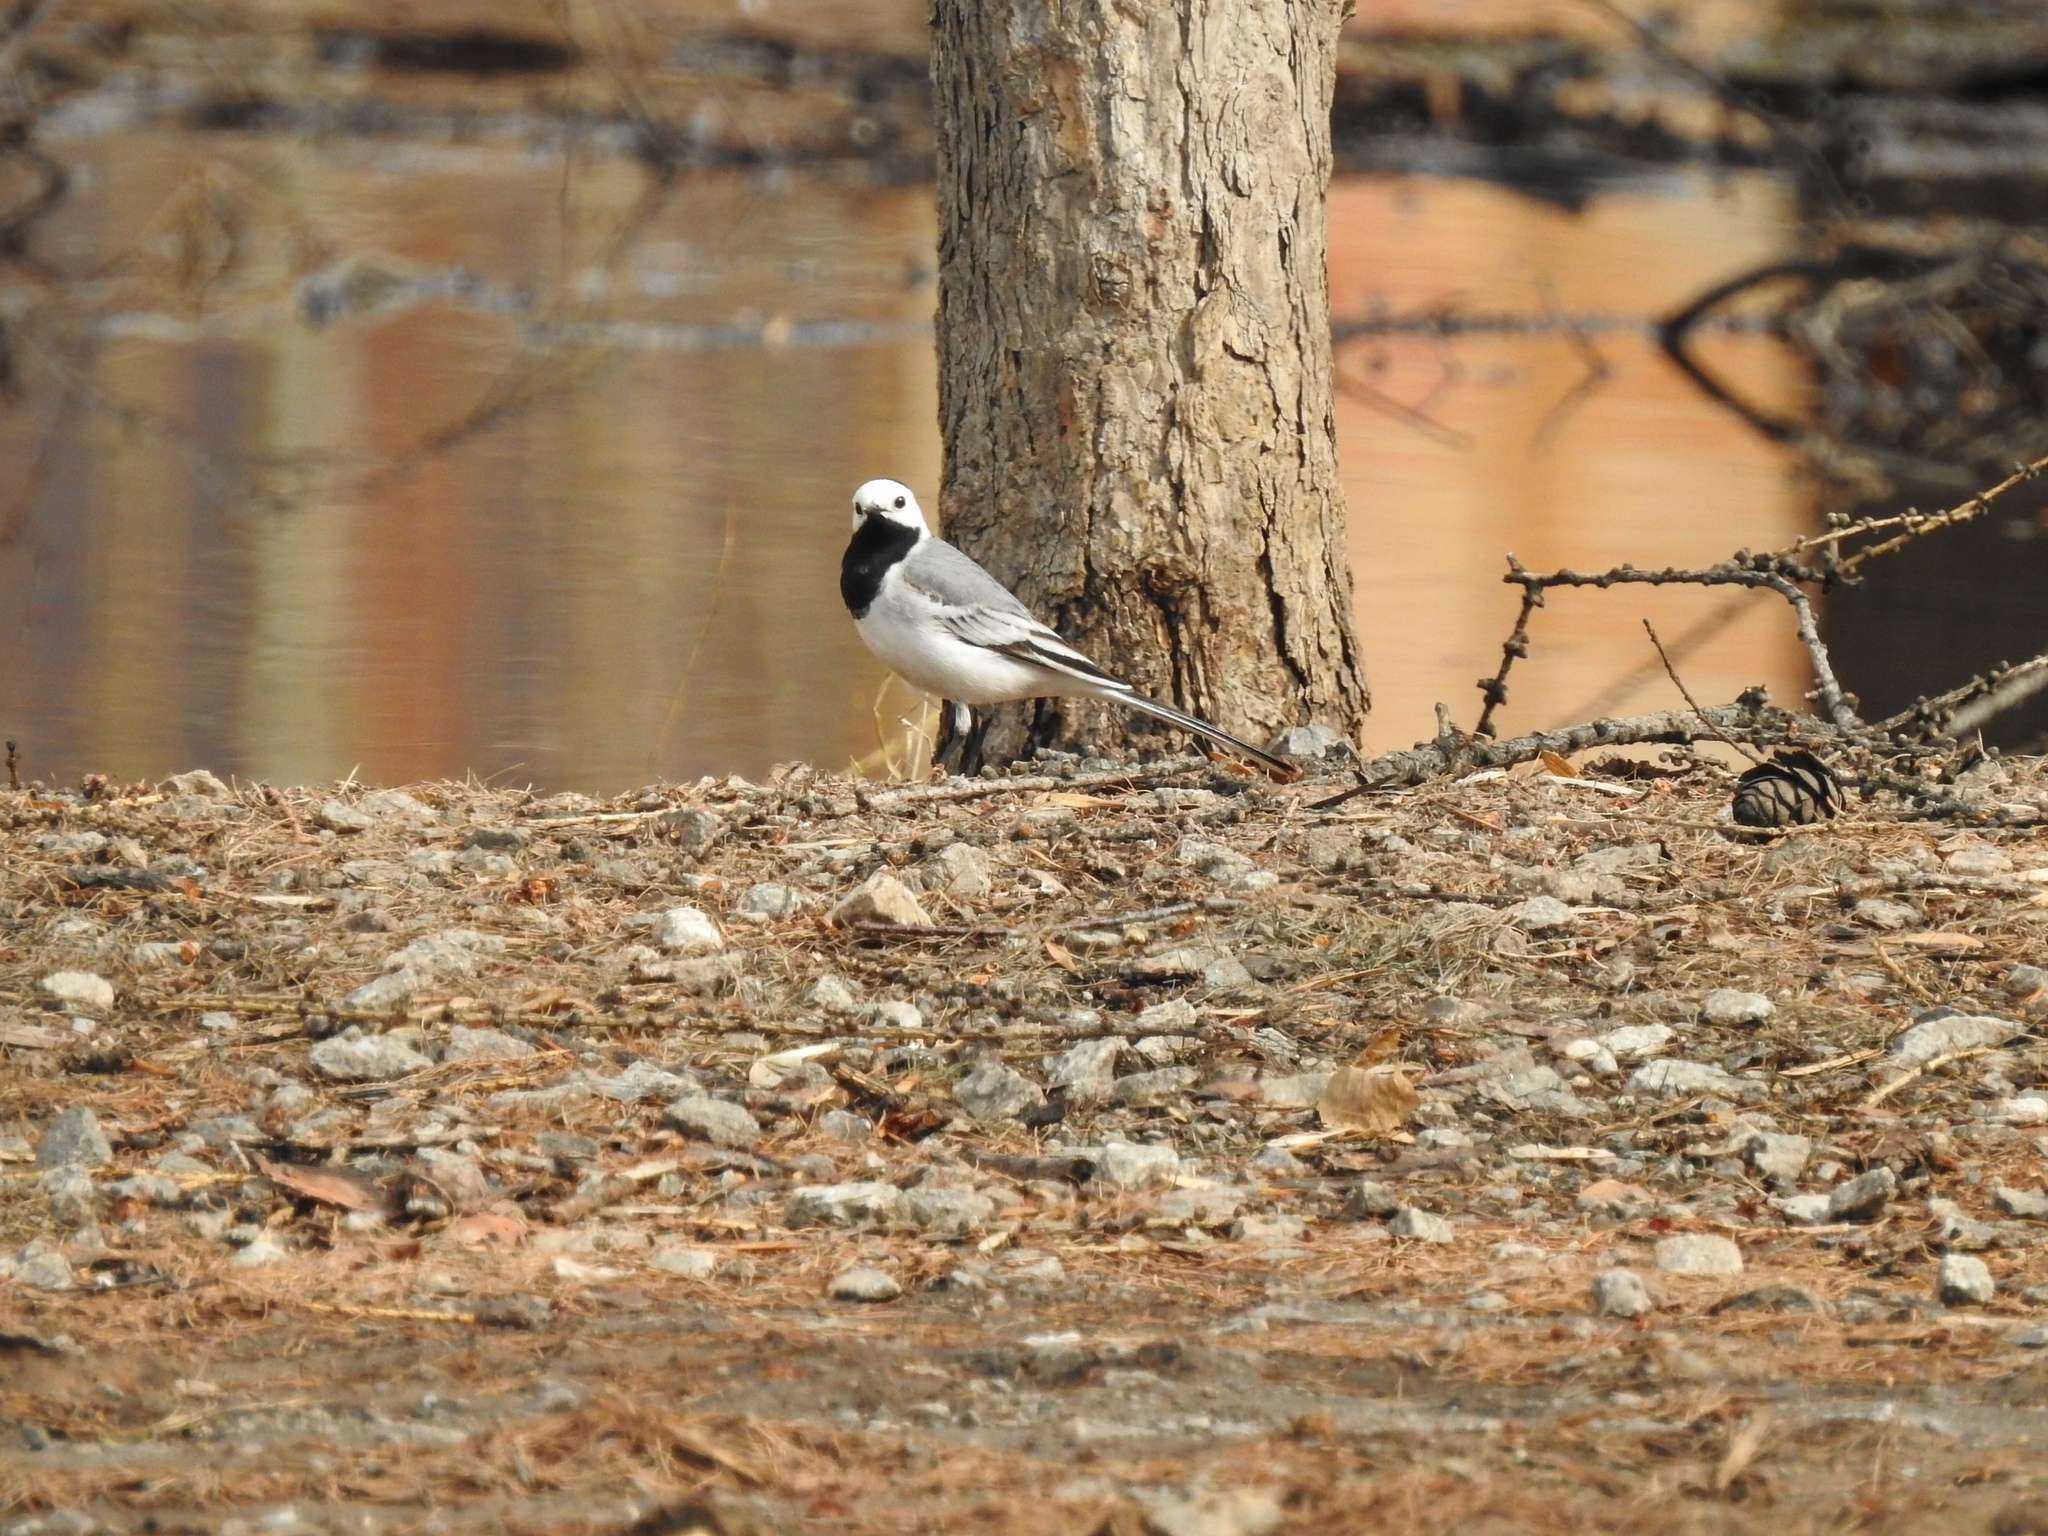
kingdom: Animalia
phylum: Chordata
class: Aves
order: Passeriformes
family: Motacillidae
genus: Motacilla
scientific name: Motacilla alba
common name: White wagtail
